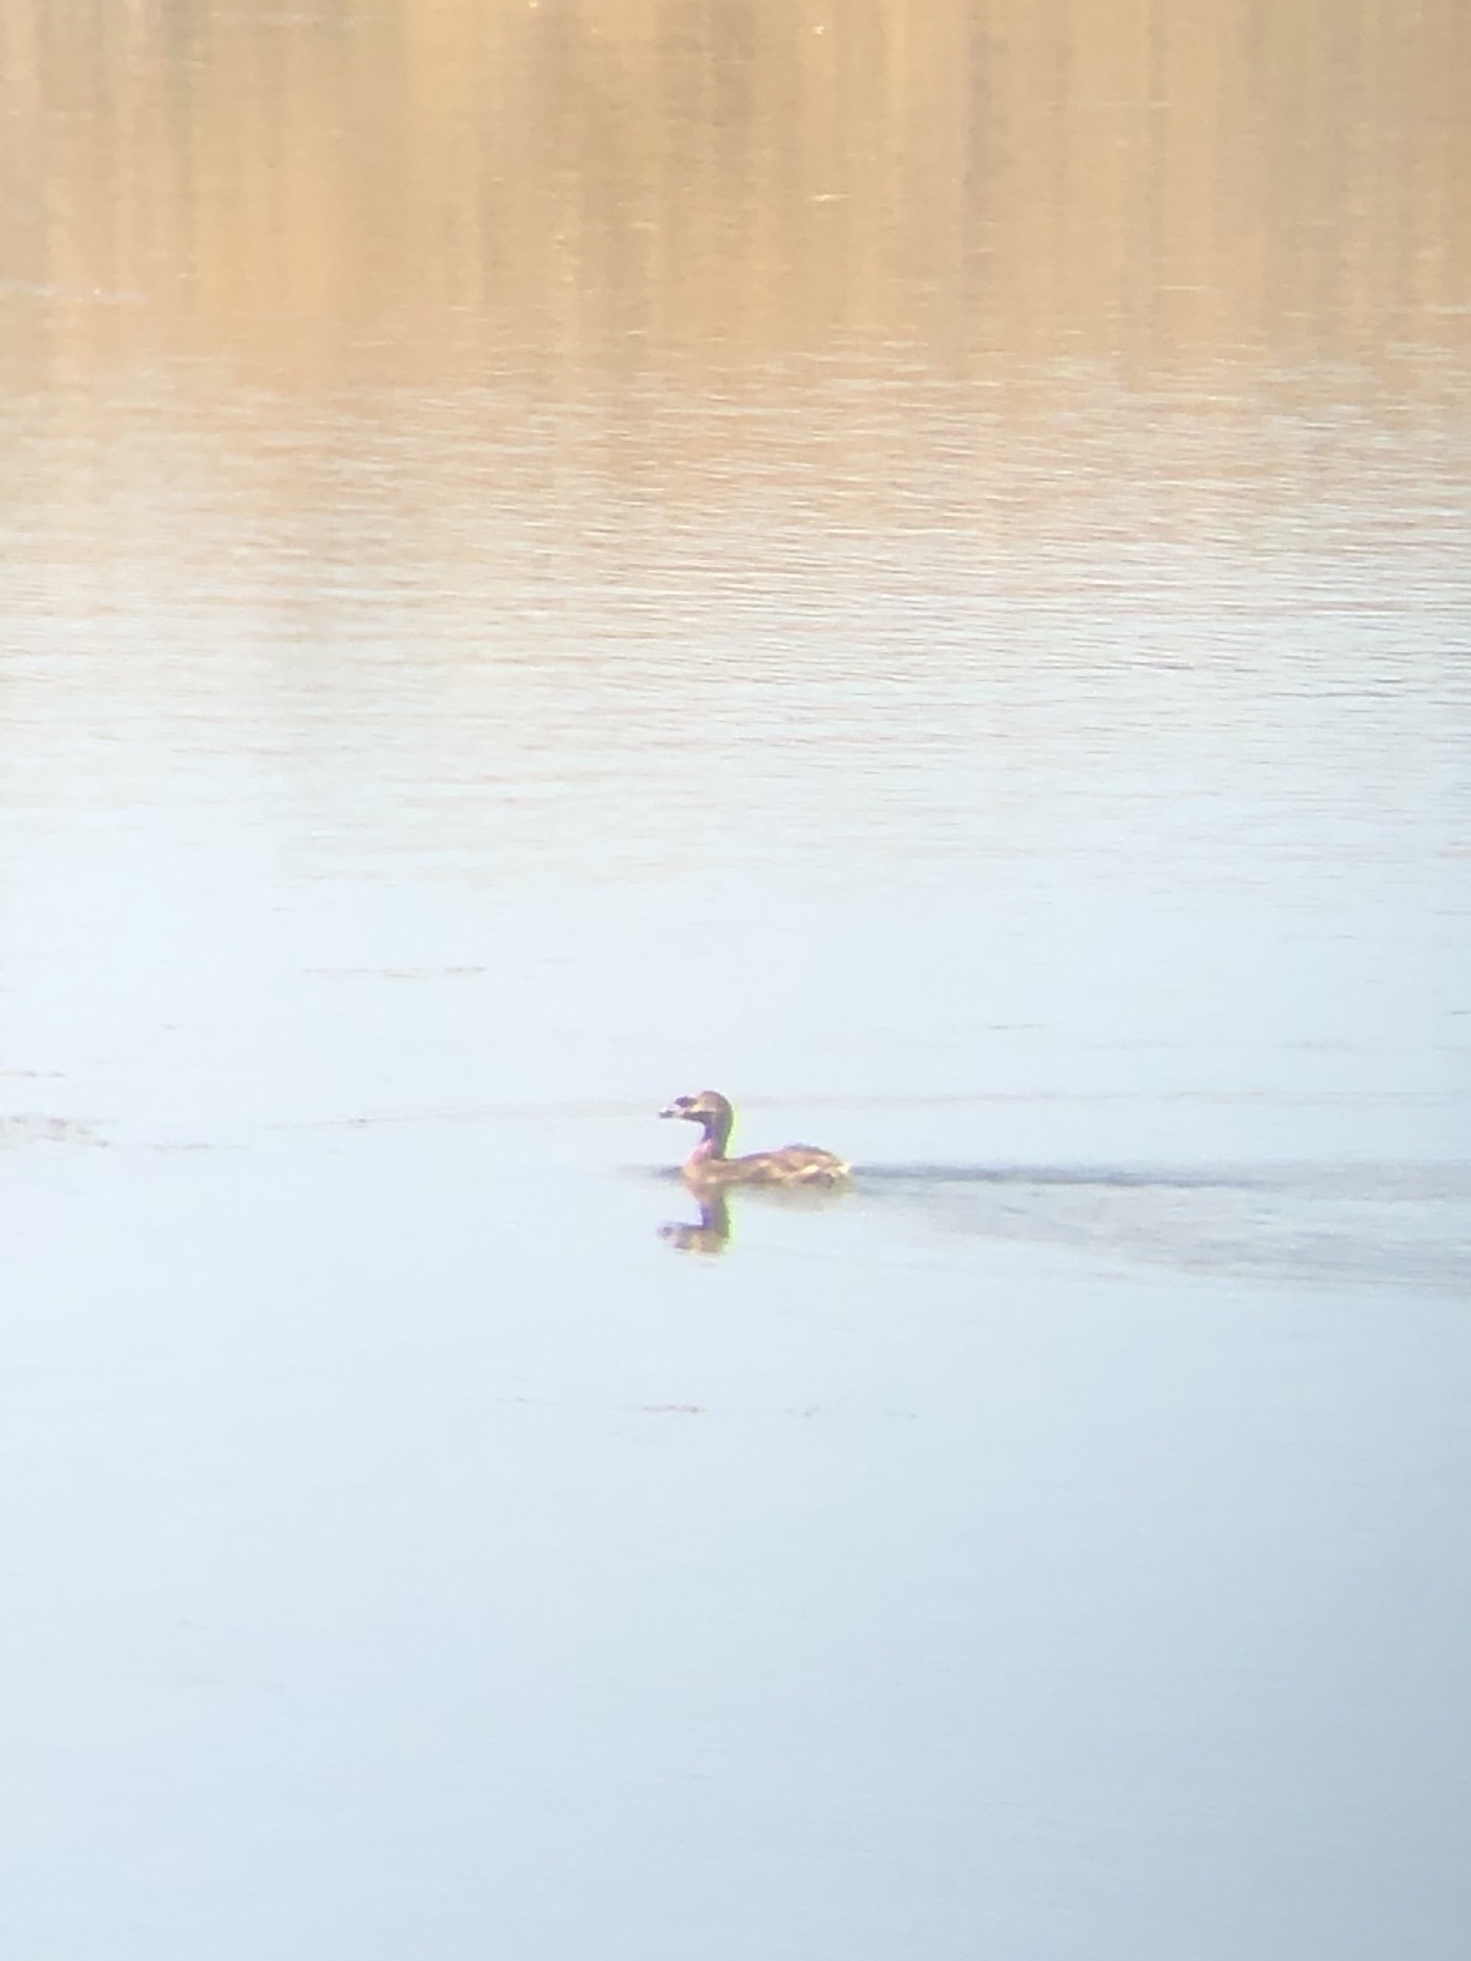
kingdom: Animalia
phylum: Chordata
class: Aves
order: Podicipediformes
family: Podicipedidae
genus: Podilymbus
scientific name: Podilymbus podiceps
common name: Pied-billed grebe
